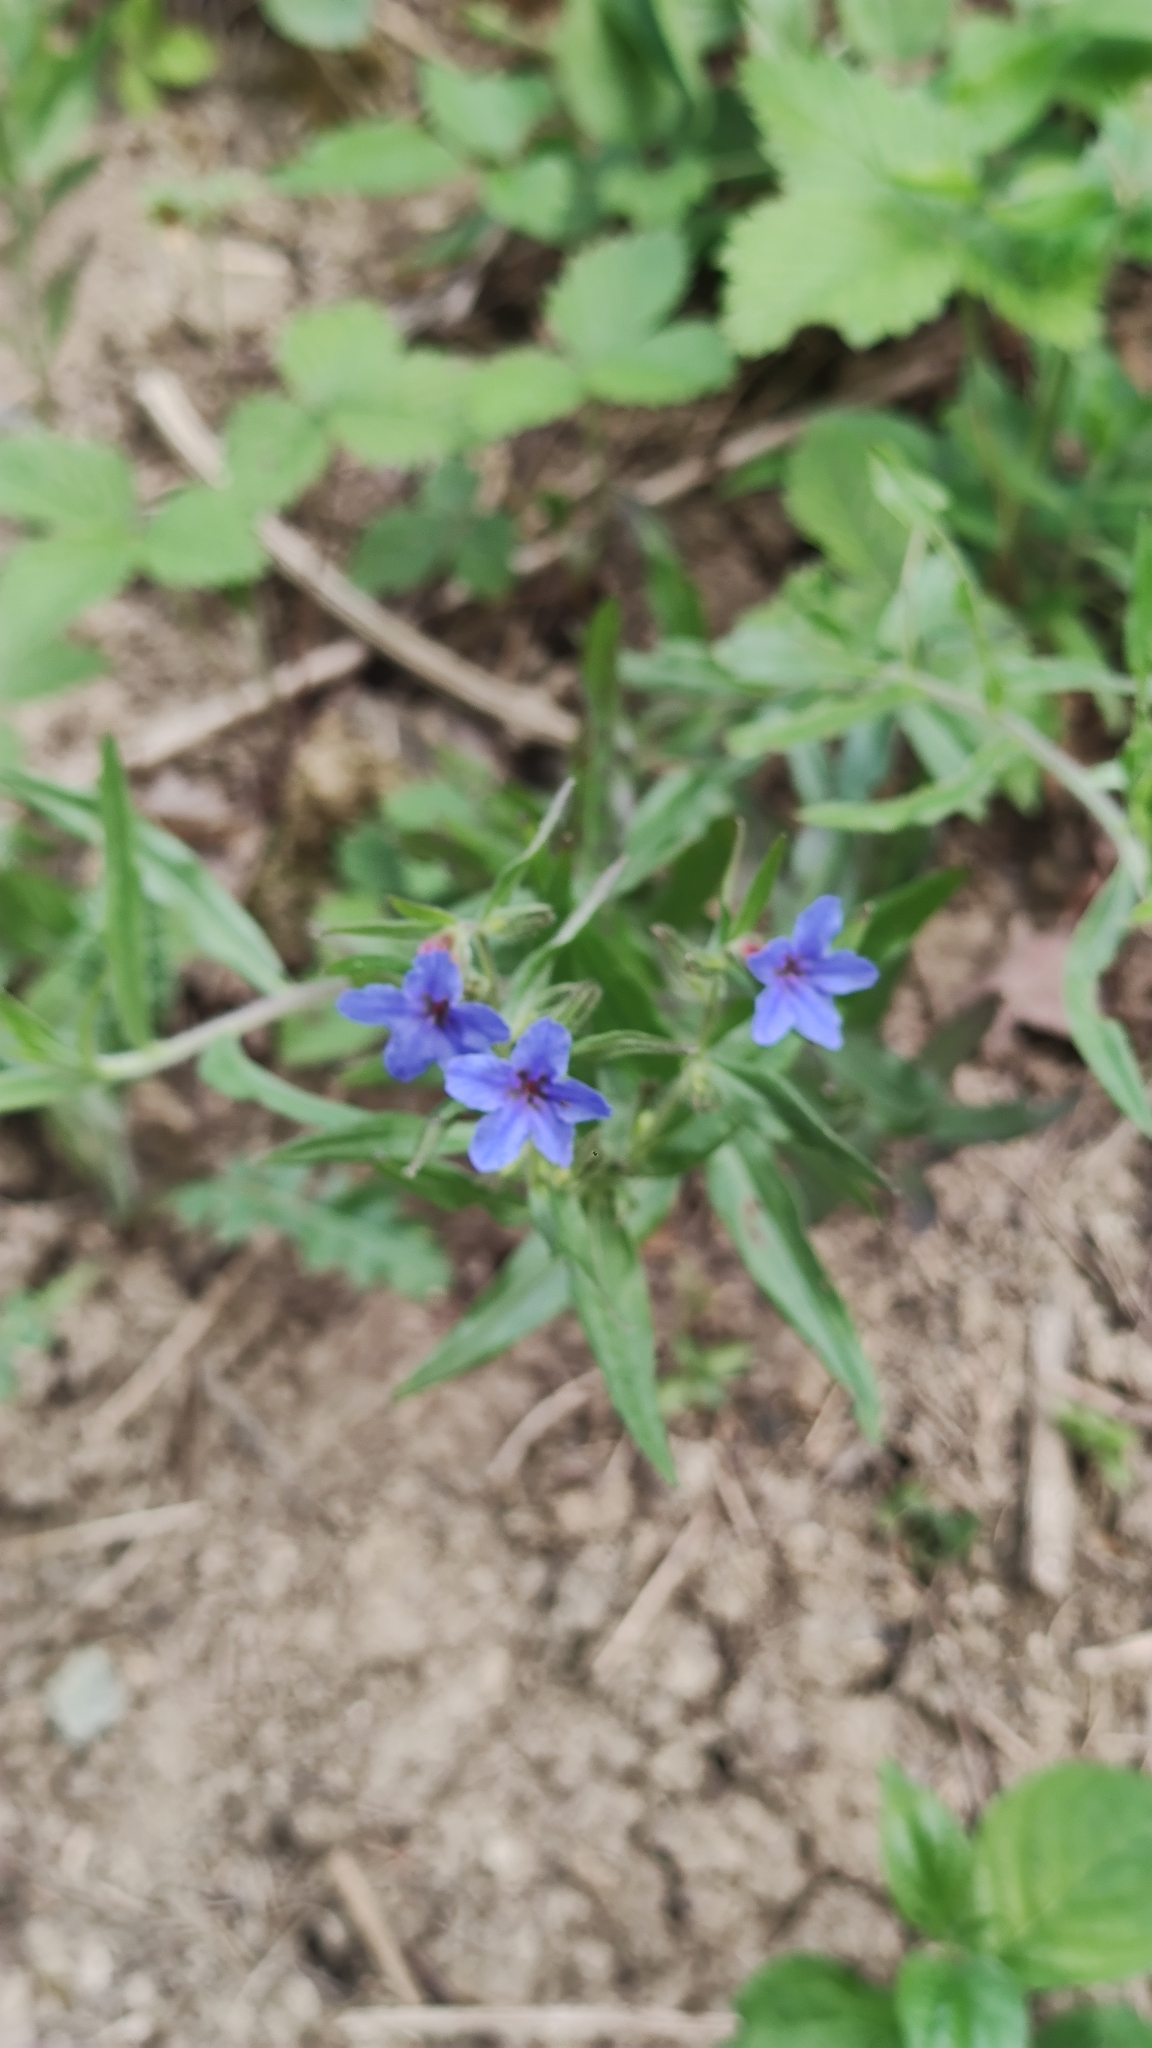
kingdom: Plantae
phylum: Tracheophyta
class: Magnoliopsida
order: Boraginales
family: Boraginaceae
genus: Aegonychon
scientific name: Aegonychon purpurocaeruleum
